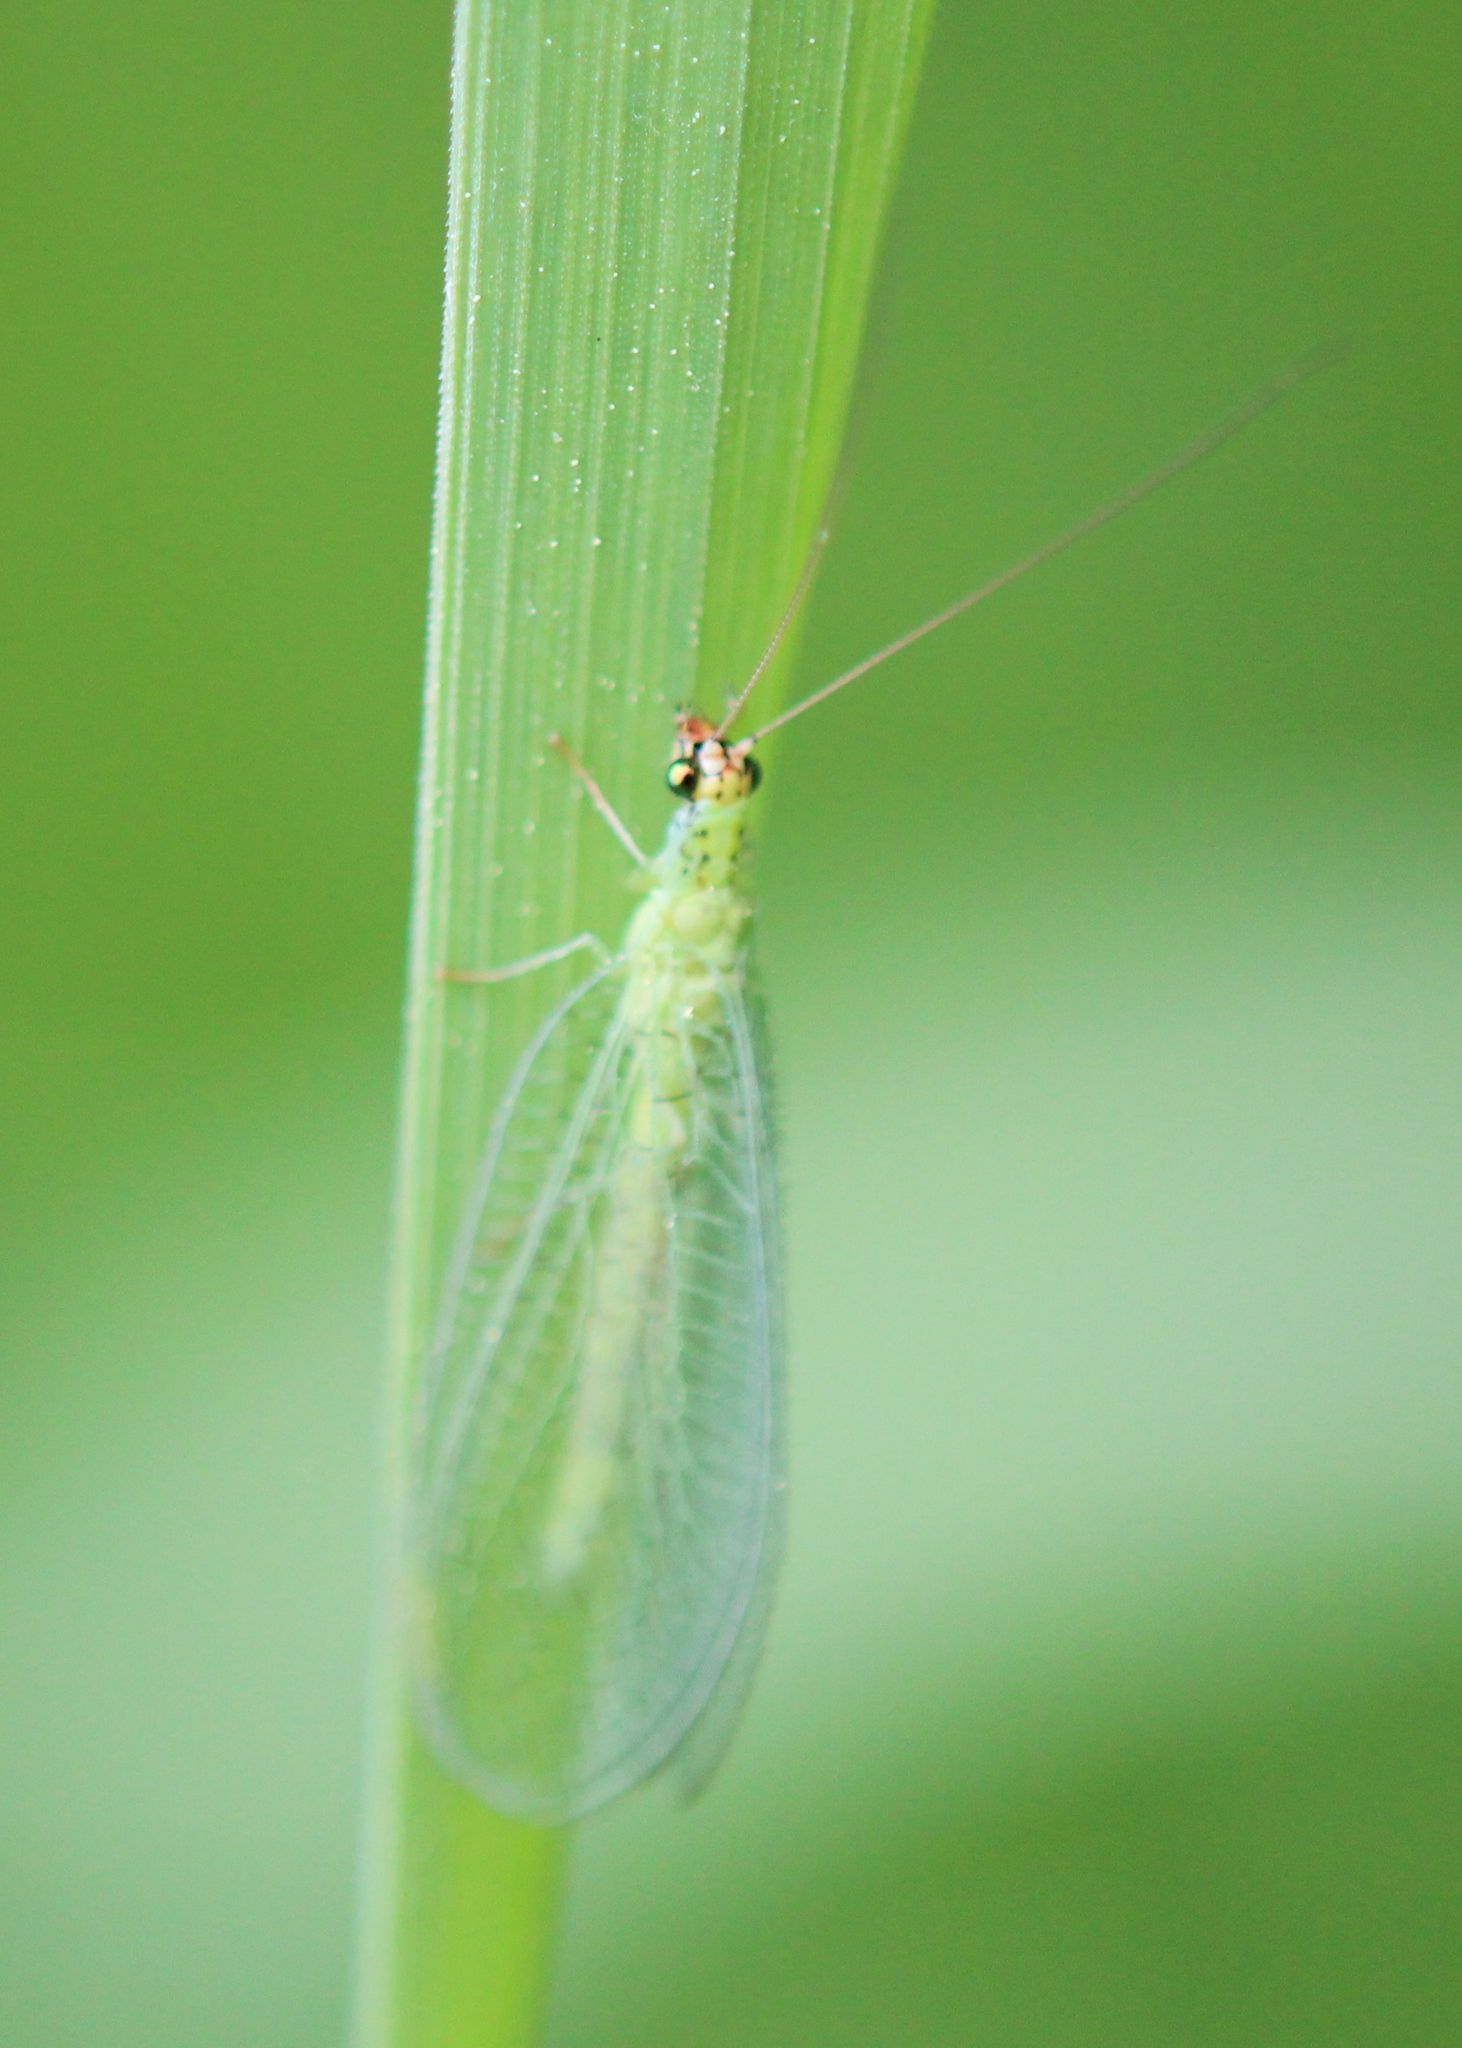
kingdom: Animalia
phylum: Arthropoda
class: Insecta
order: Neuroptera
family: Chrysopidae
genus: Chrysopa
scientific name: Chrysopa oculata
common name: Golden-eyed lacewing
